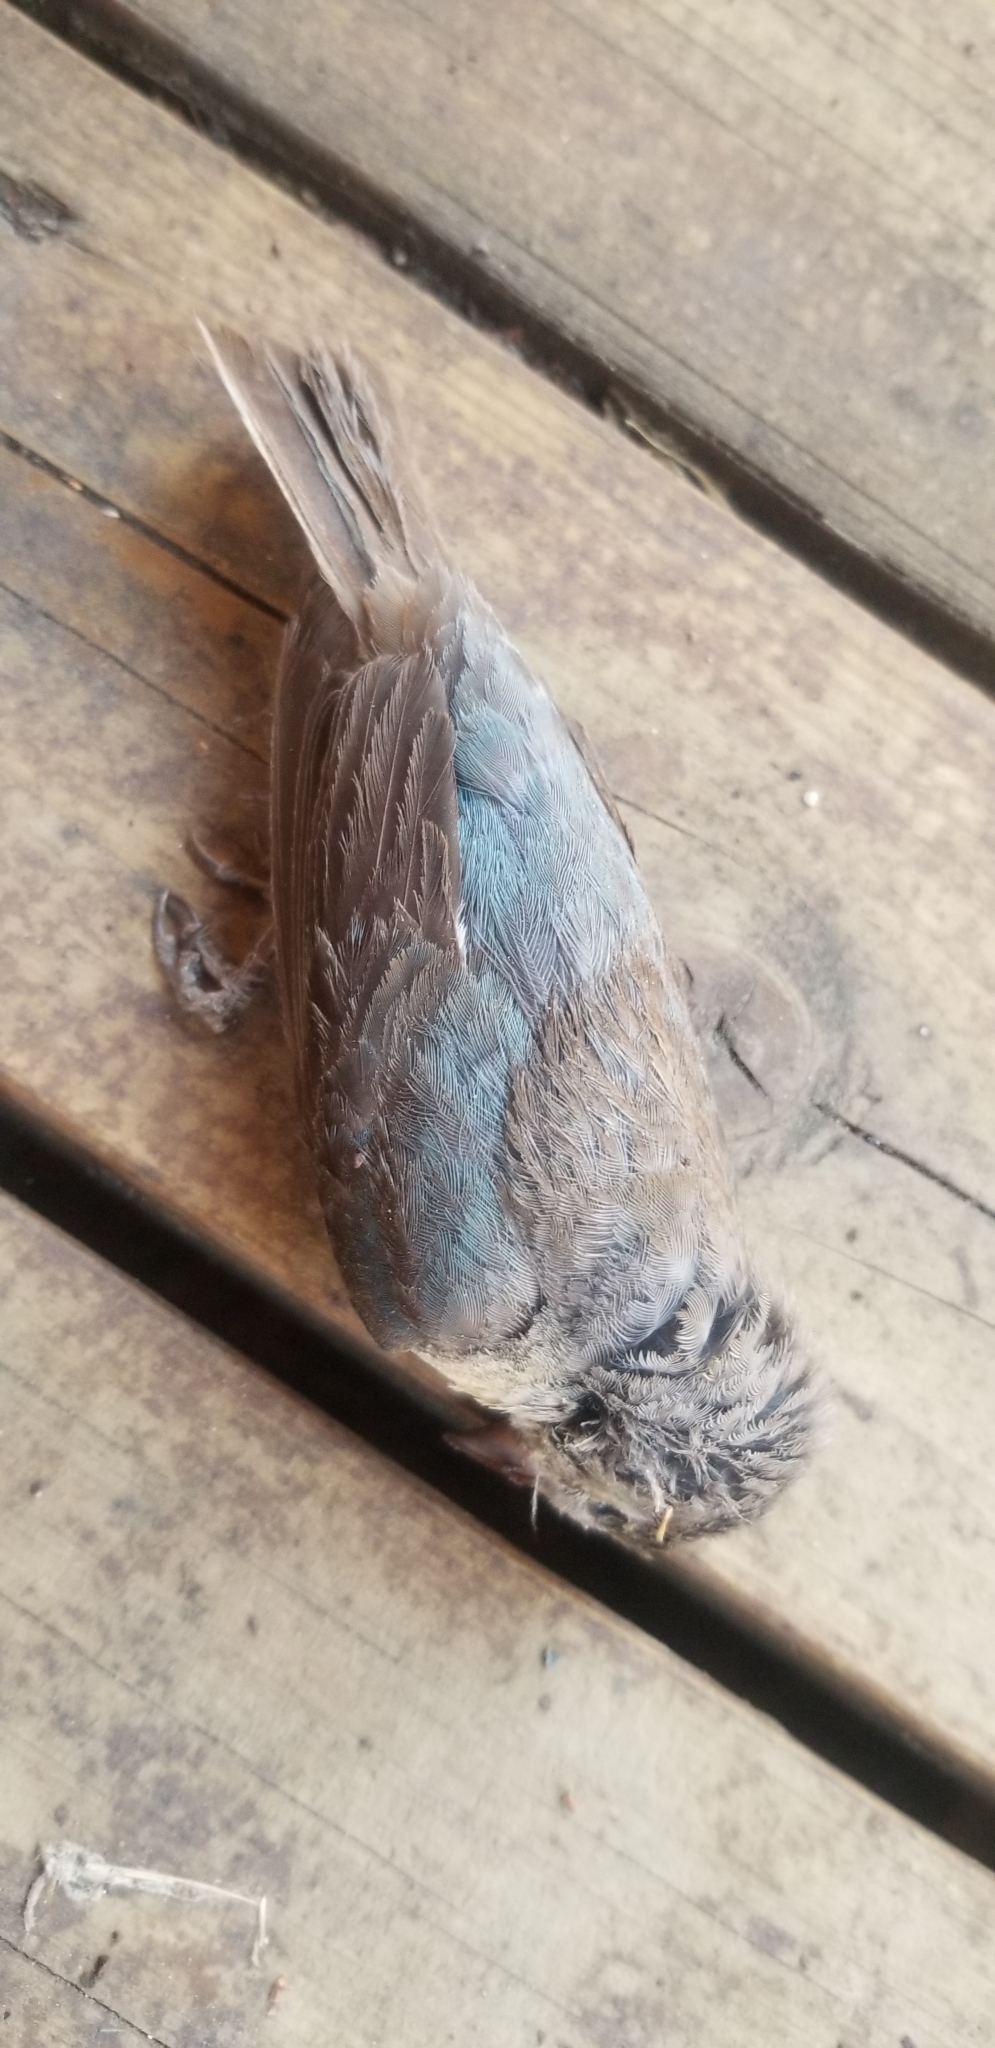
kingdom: Animalia
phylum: Chordata
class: Aves
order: Passeriformes
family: Cardinalidae
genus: Passerina
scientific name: Passerina amoena
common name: Lazuli bunting
